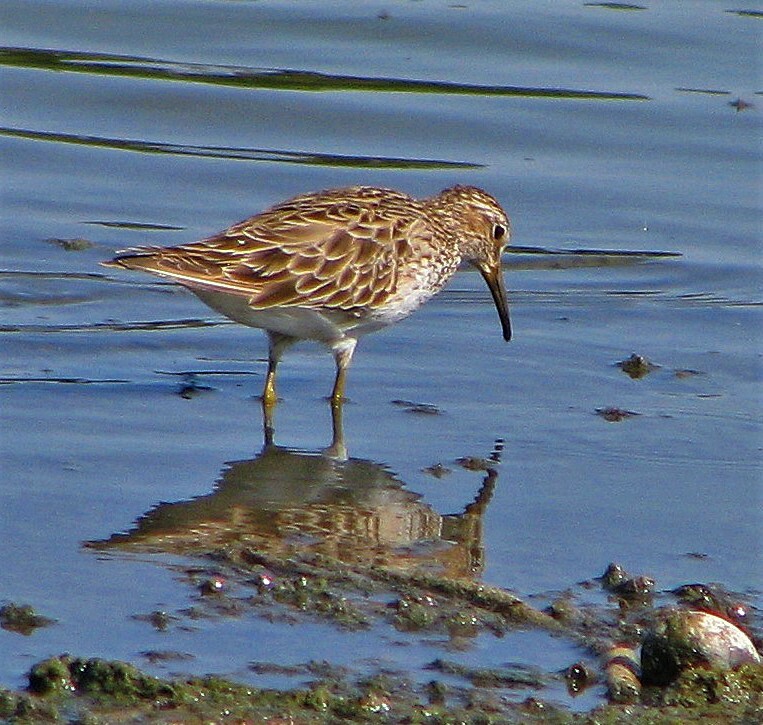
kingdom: Animalia
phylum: Chordata
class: Aves
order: Charadriiformes
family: Scolopacidae
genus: Calidris
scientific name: Calidris melanotos
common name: Pectoral sandpiper
